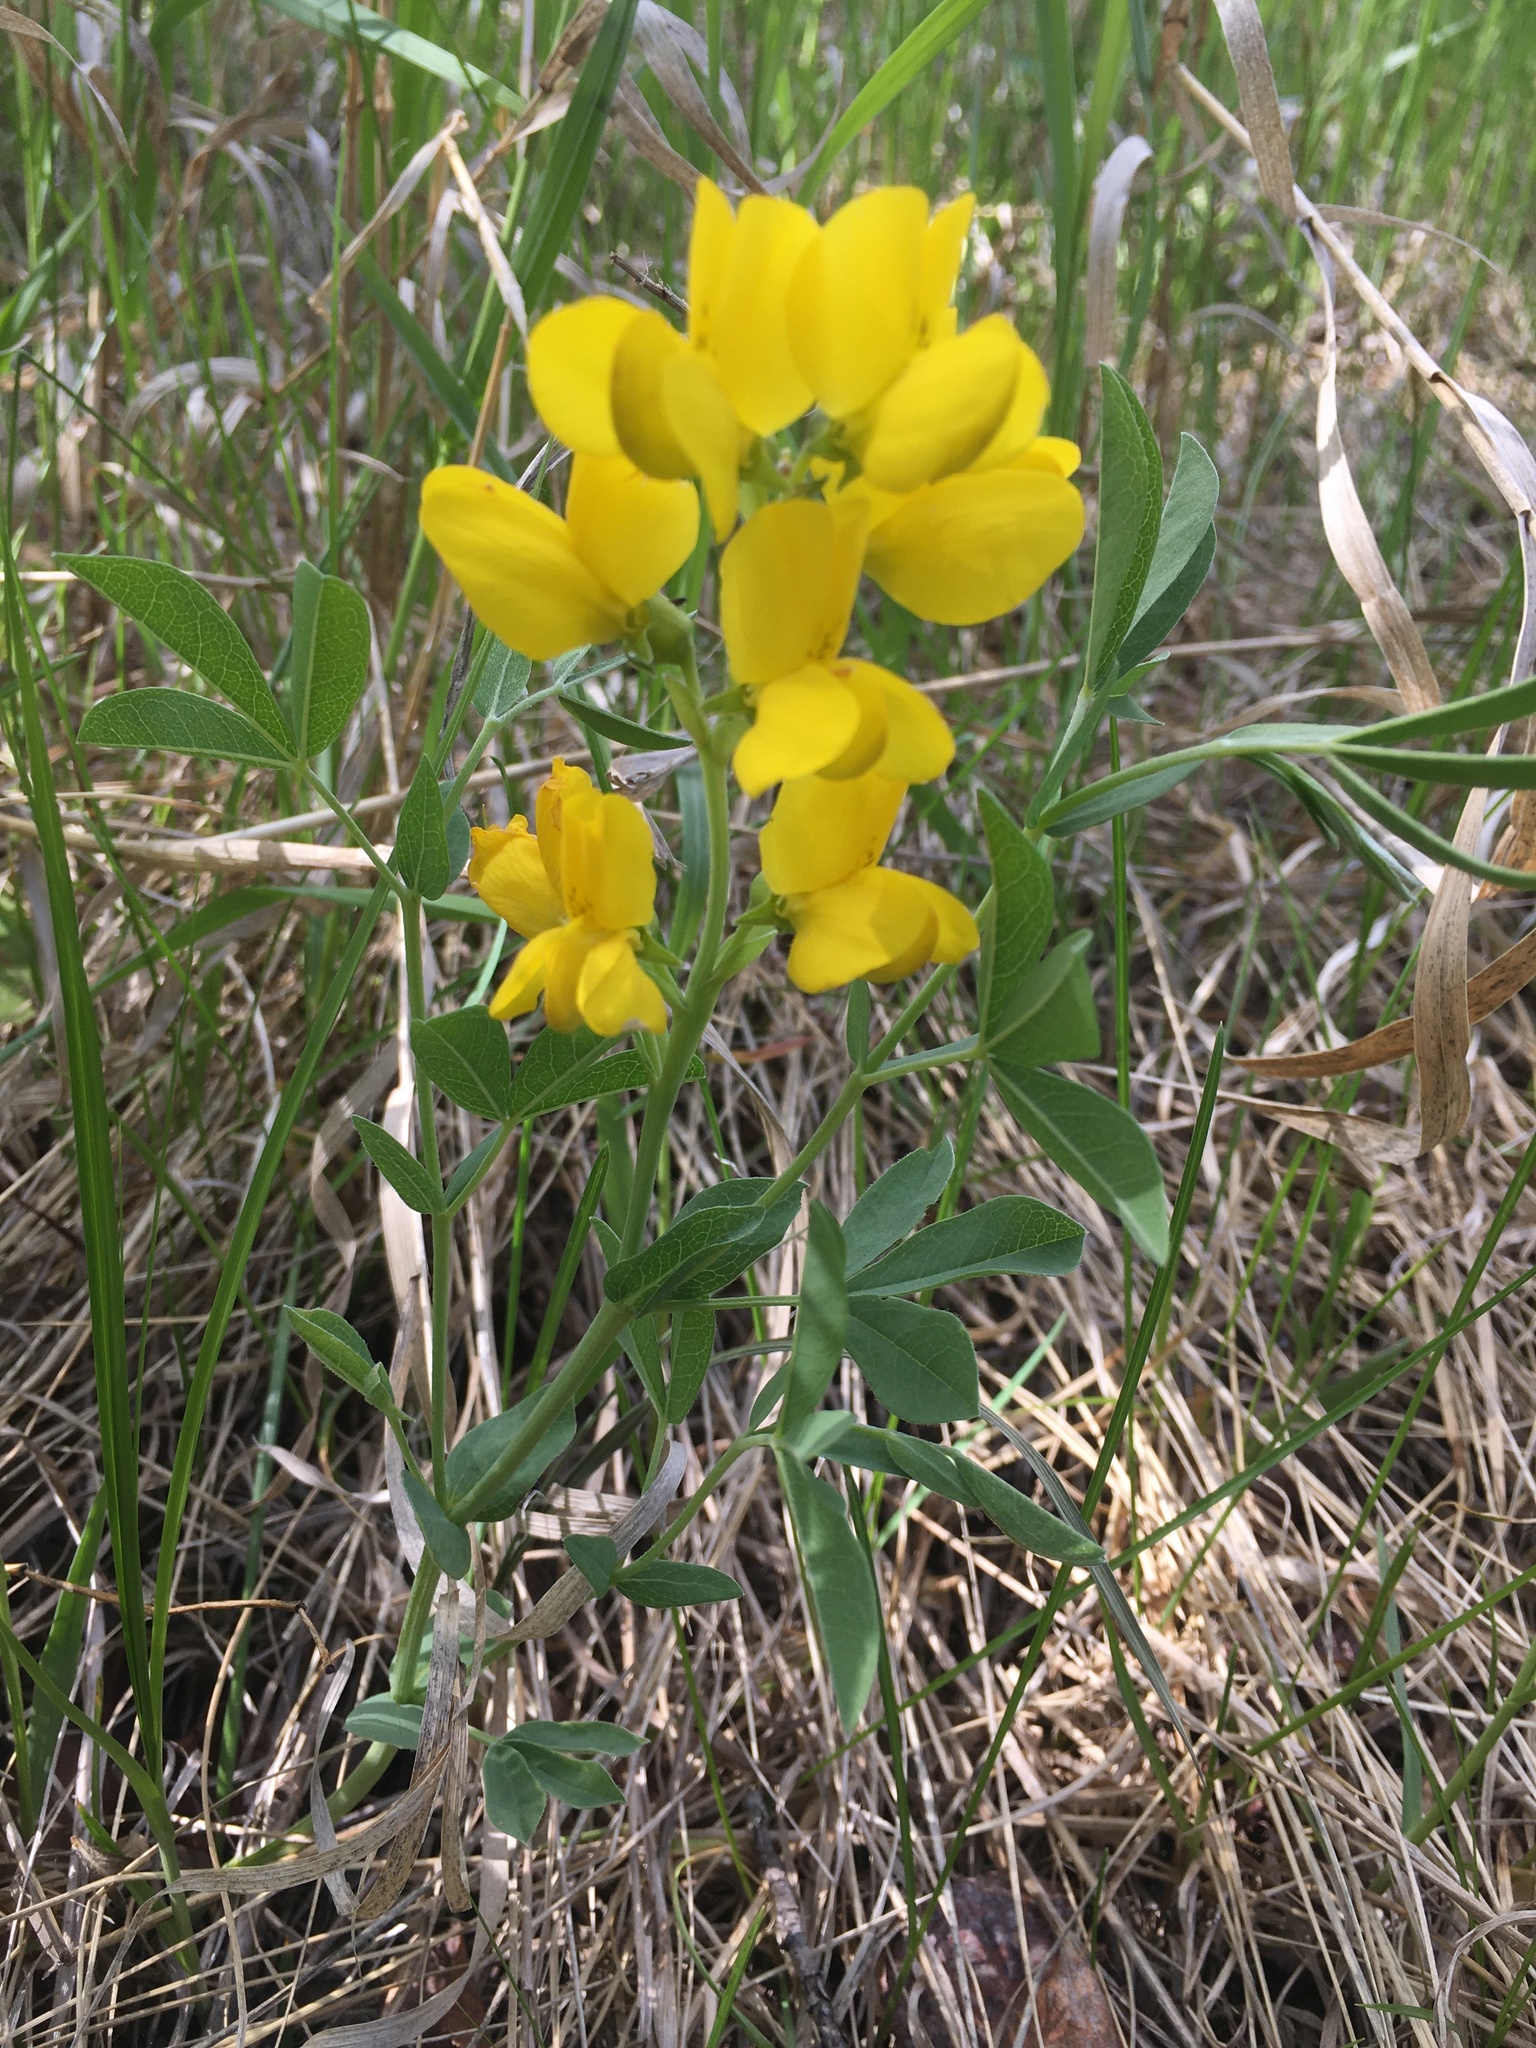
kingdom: Plantae
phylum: Tracheophyta
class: Magnoliopsida
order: Fabales
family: Fabaceae
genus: Thermopsis
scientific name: Thermopsis rhombifolia
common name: Circle-pod-pea
